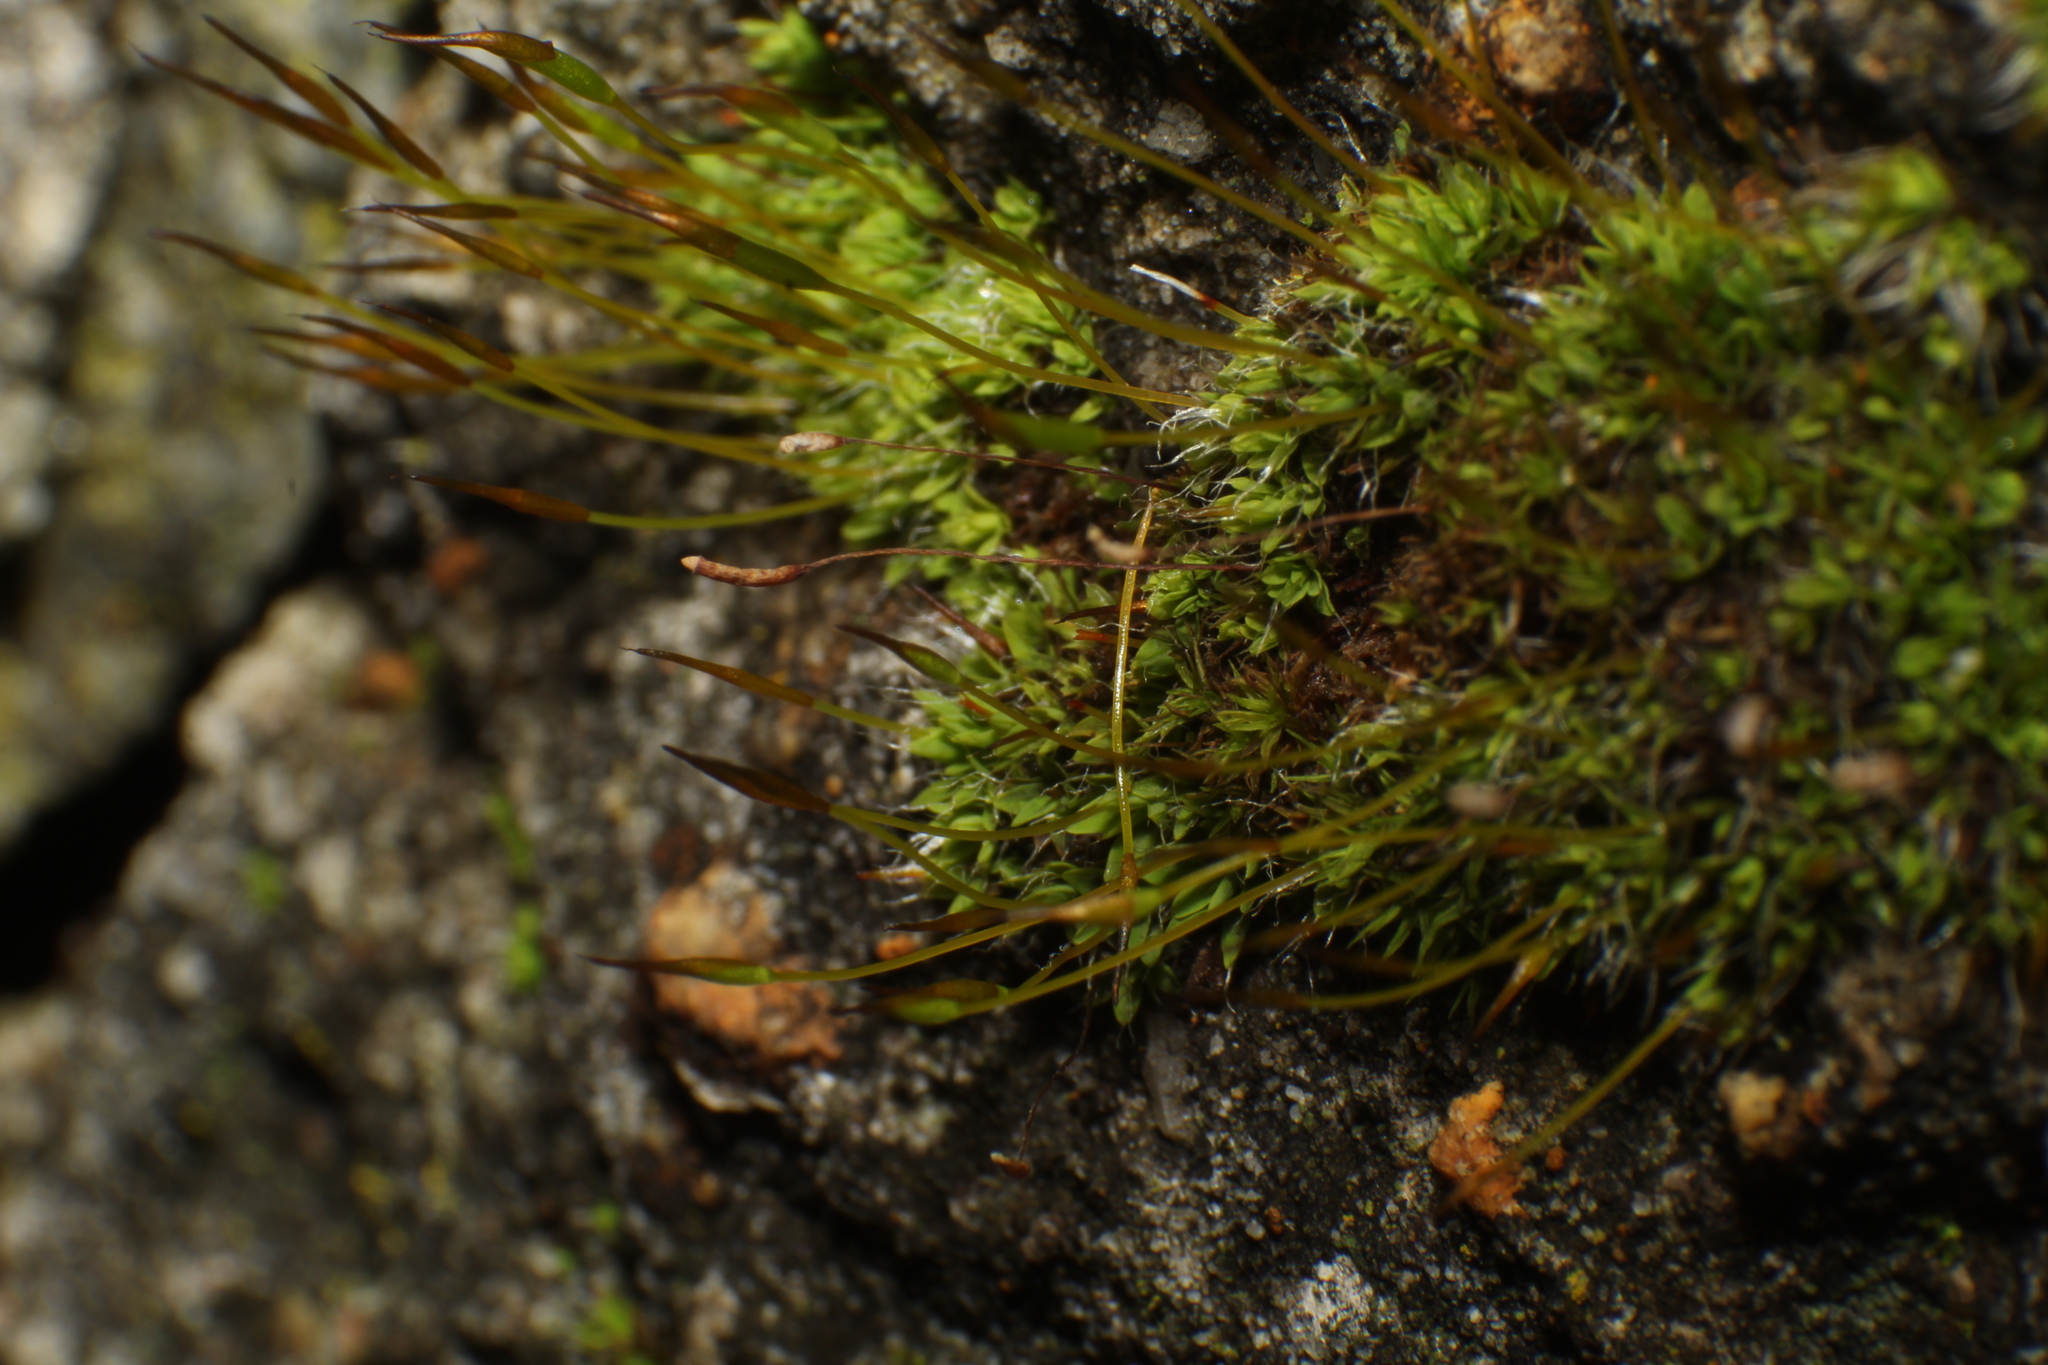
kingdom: Plantae
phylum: Bryophyta
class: Bryopsida
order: Pottiales
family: Pottiaceae
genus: Tortula
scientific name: Tortula muralis
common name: Wall screw-moss
